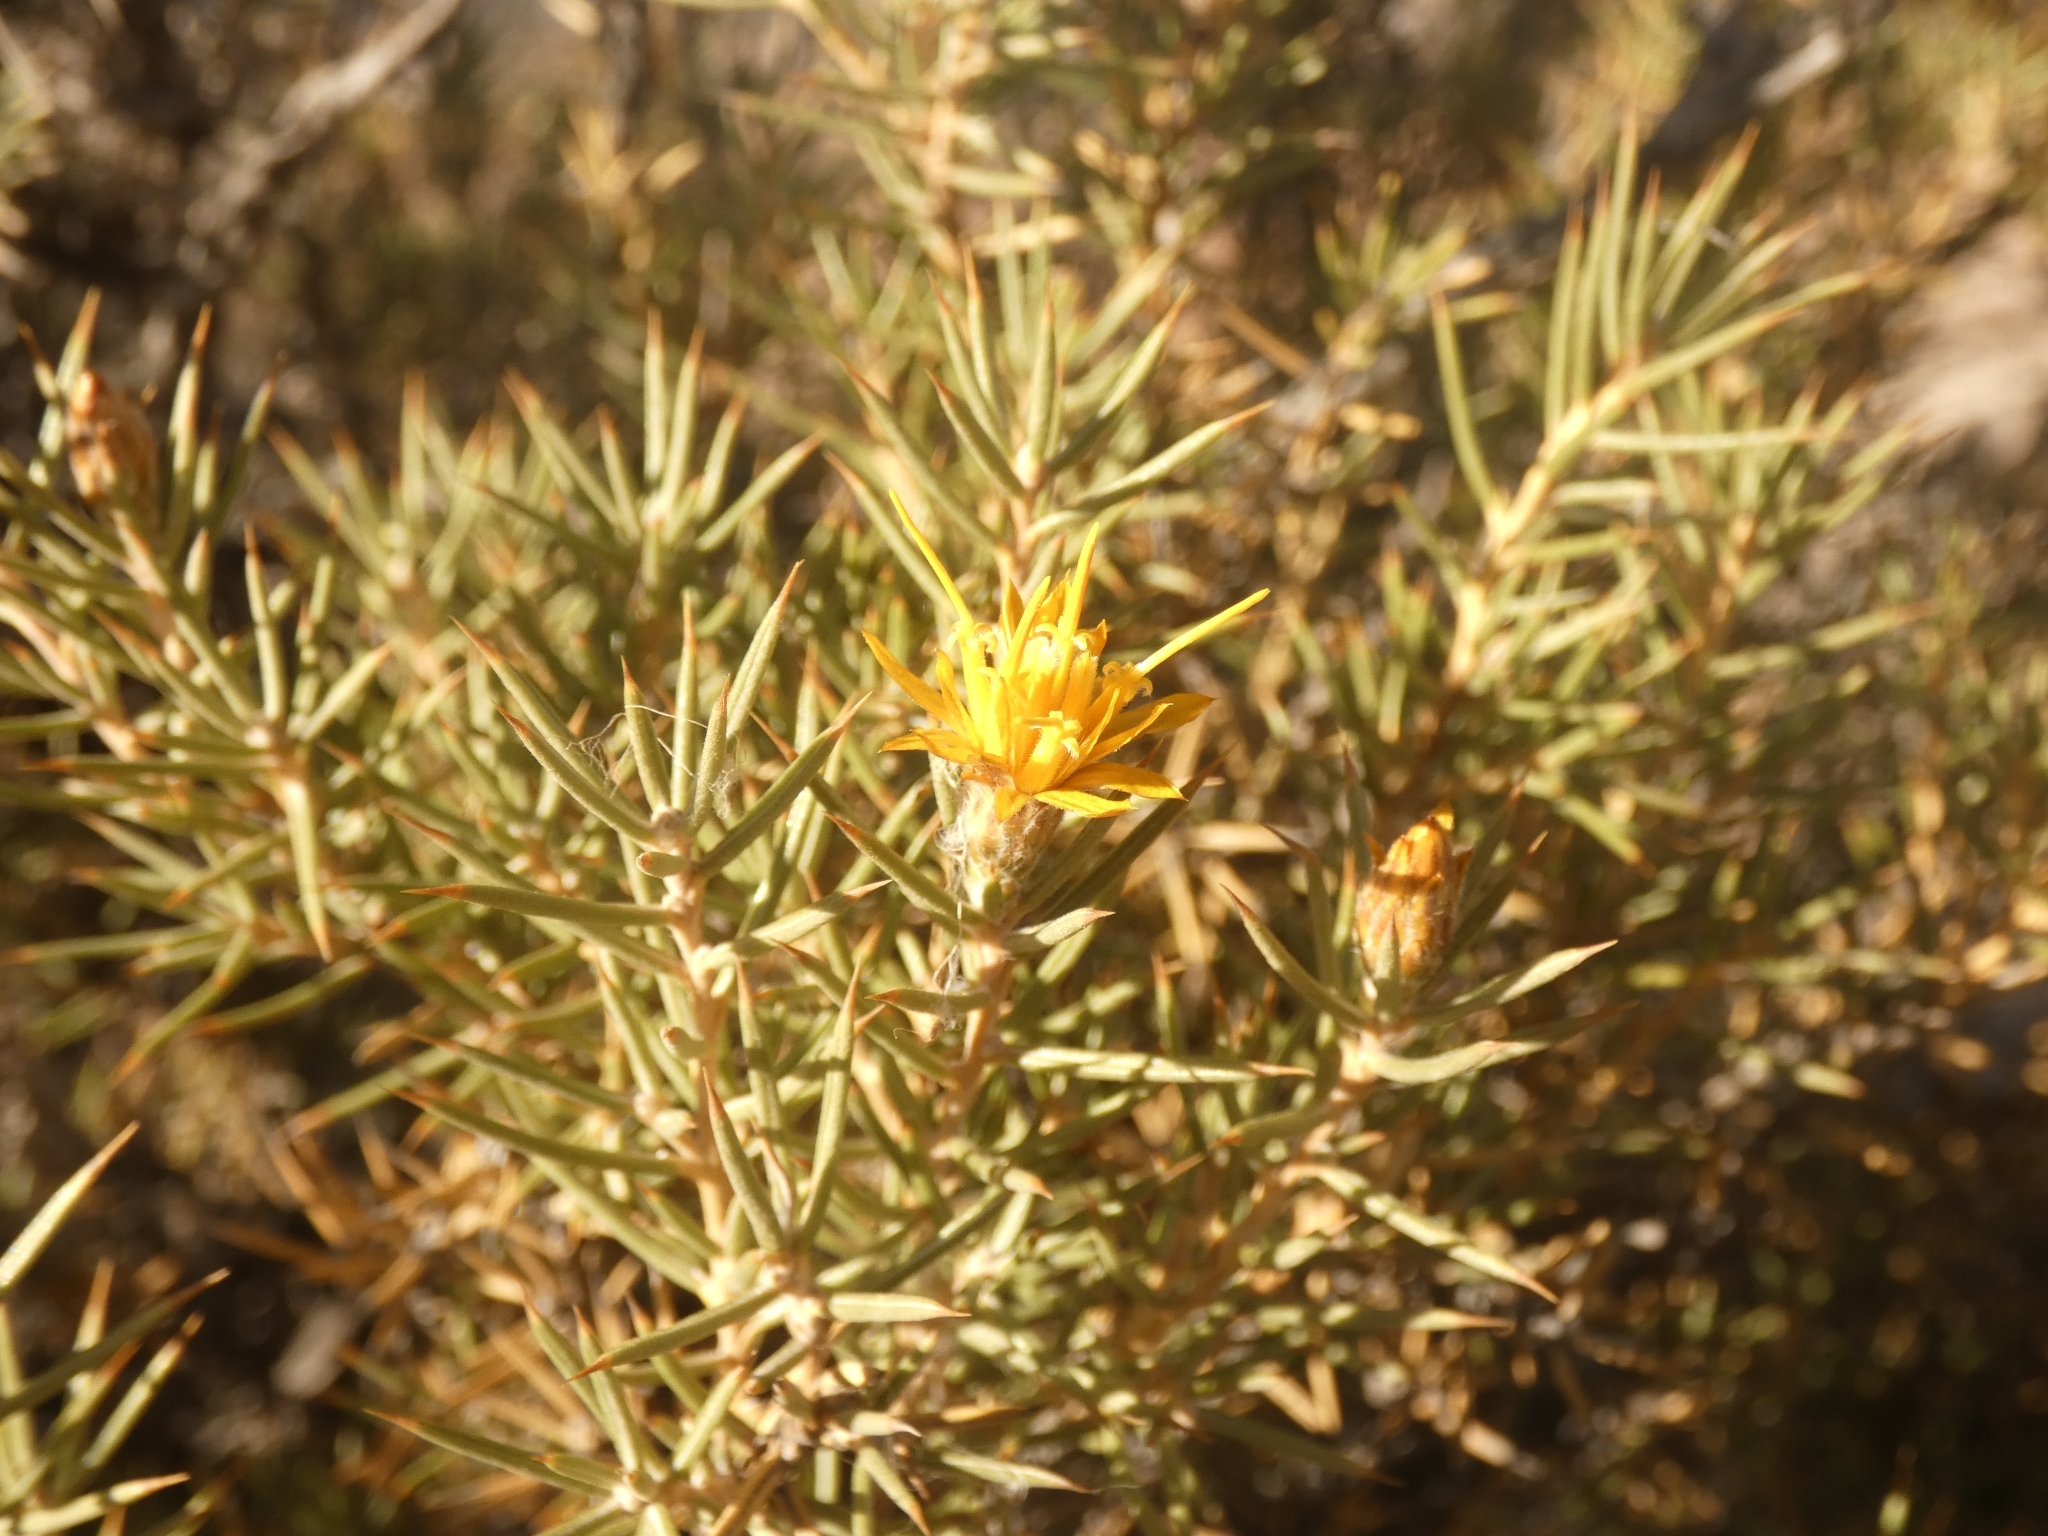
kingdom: Plantae
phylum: Tracheophyta
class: Magnoliopsida
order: Asterales
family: Asteraceae
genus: Chuquiraga
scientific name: Chuquiraga erinacea
